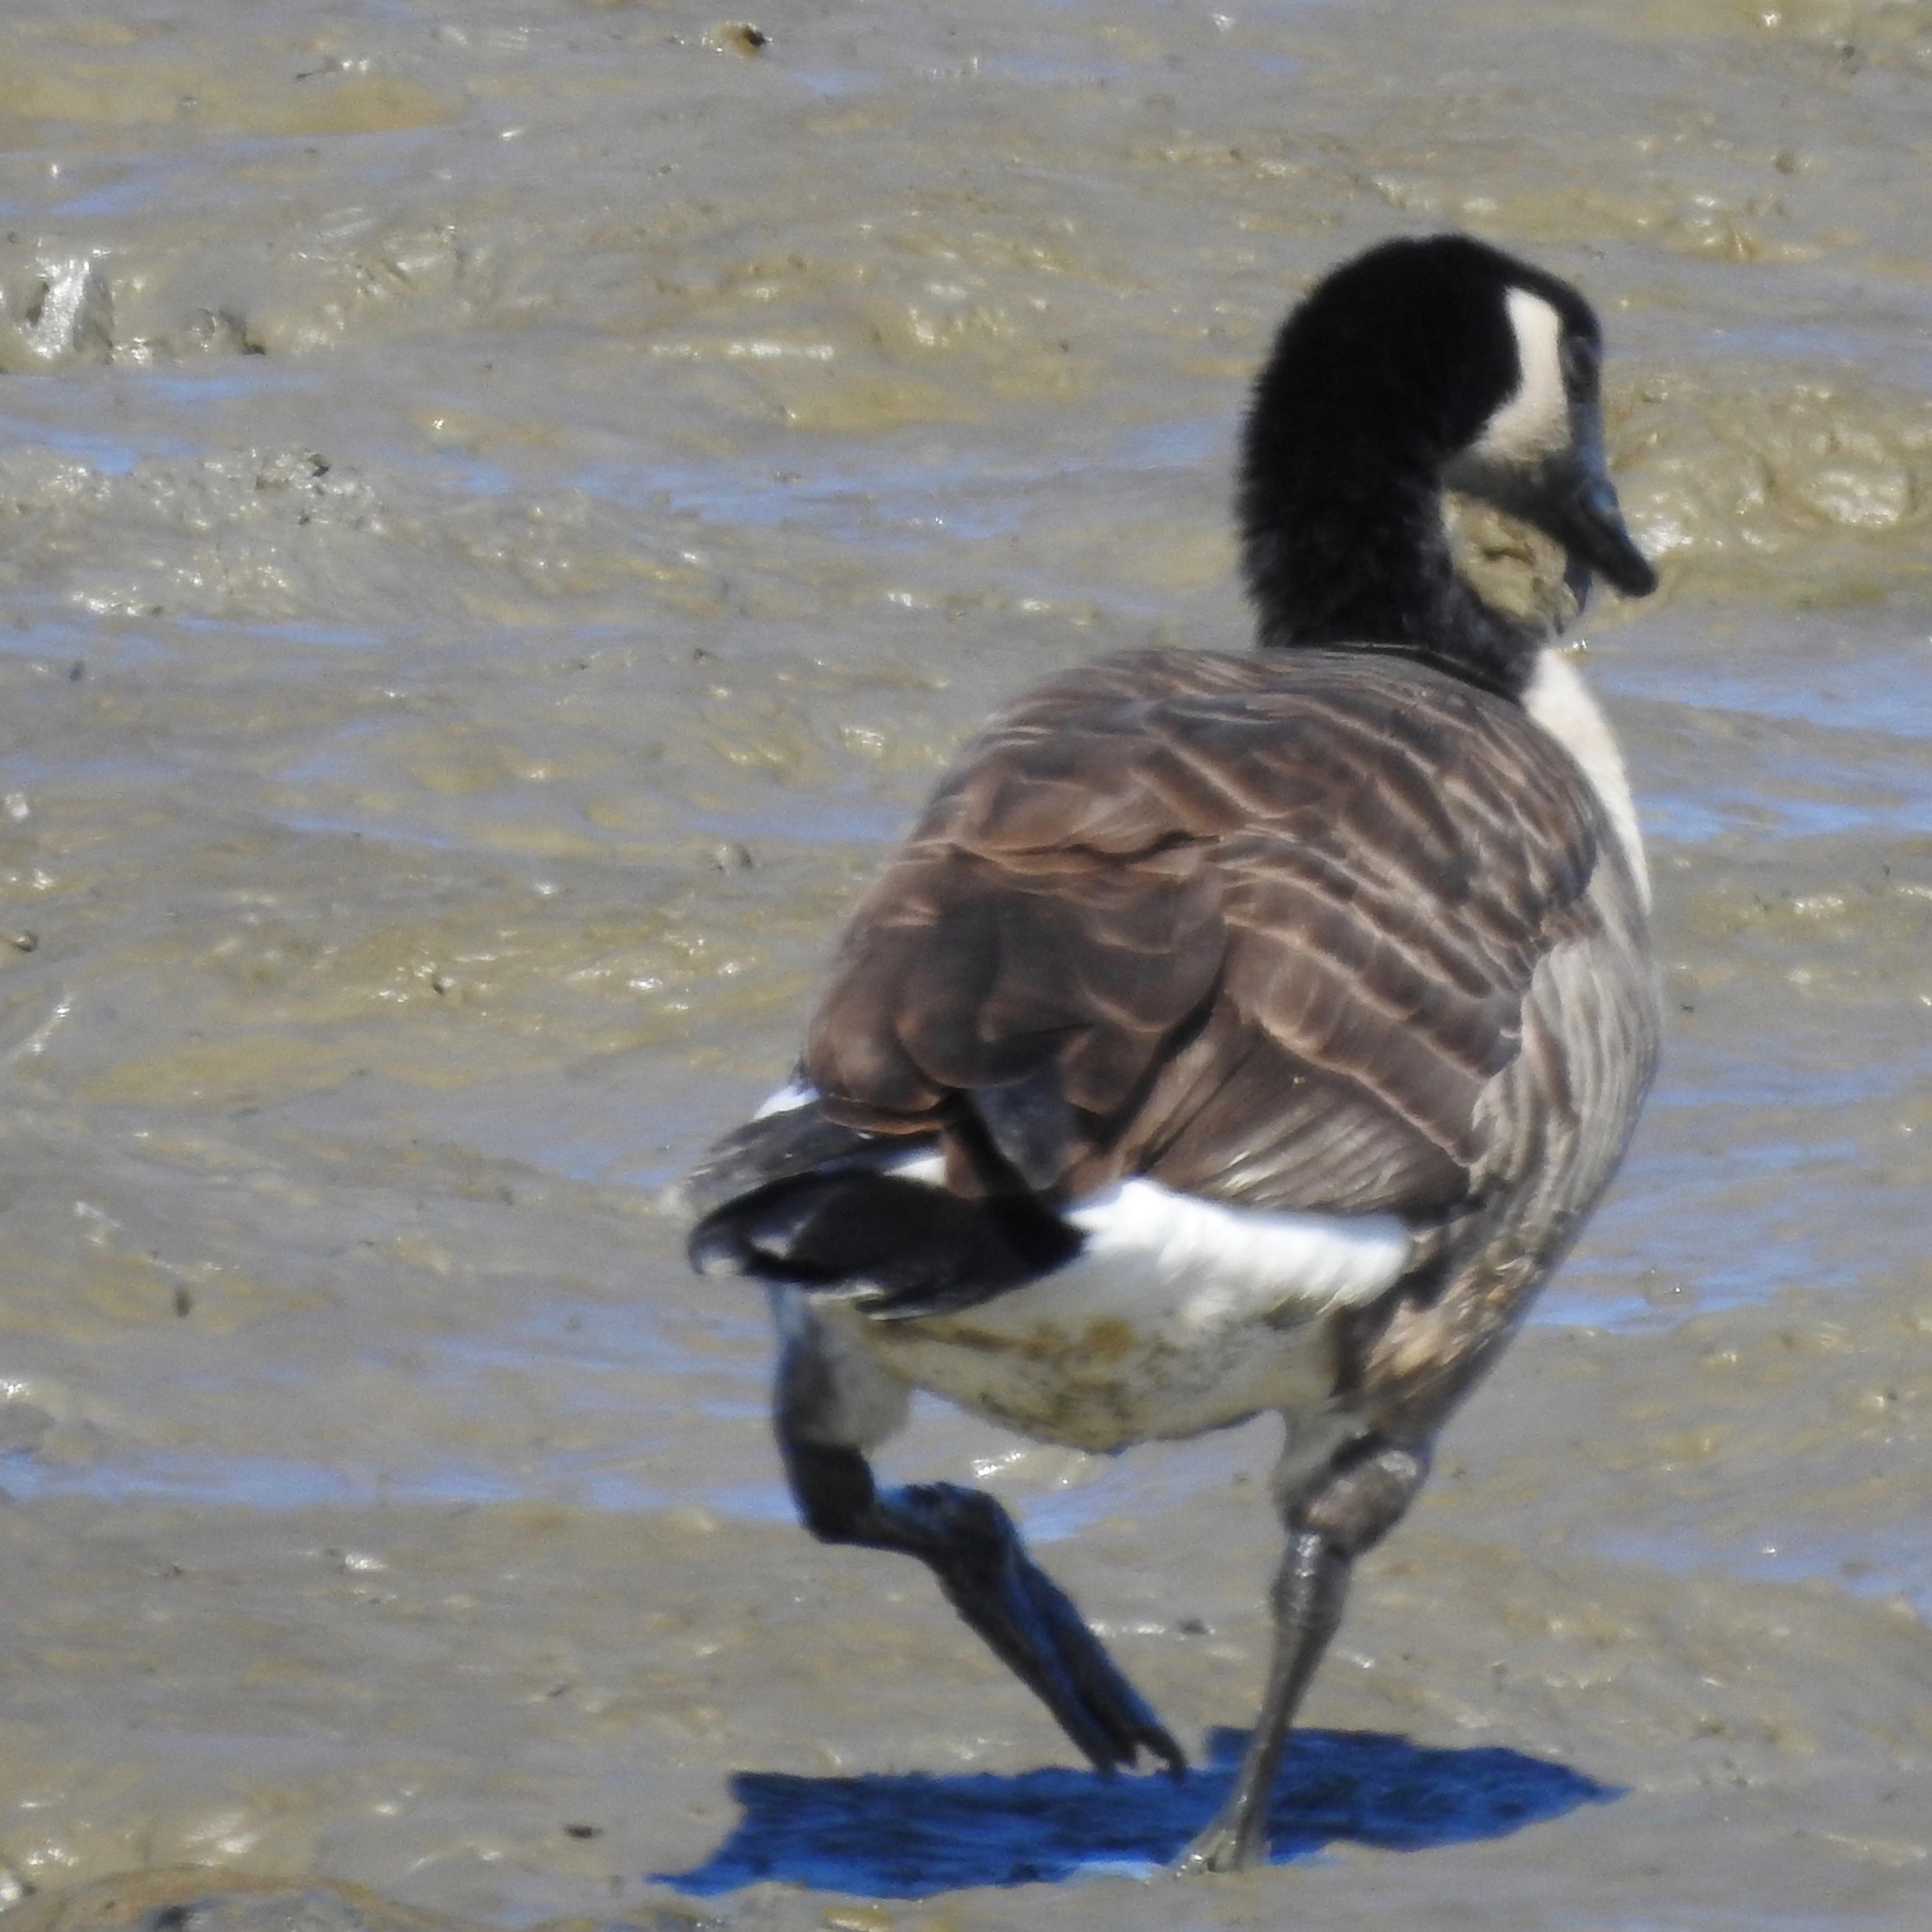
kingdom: Animalia
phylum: Chordata
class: Aves
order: Anseriformes
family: Anatidae
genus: Branta
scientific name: Branta canadensis
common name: Canada goose
